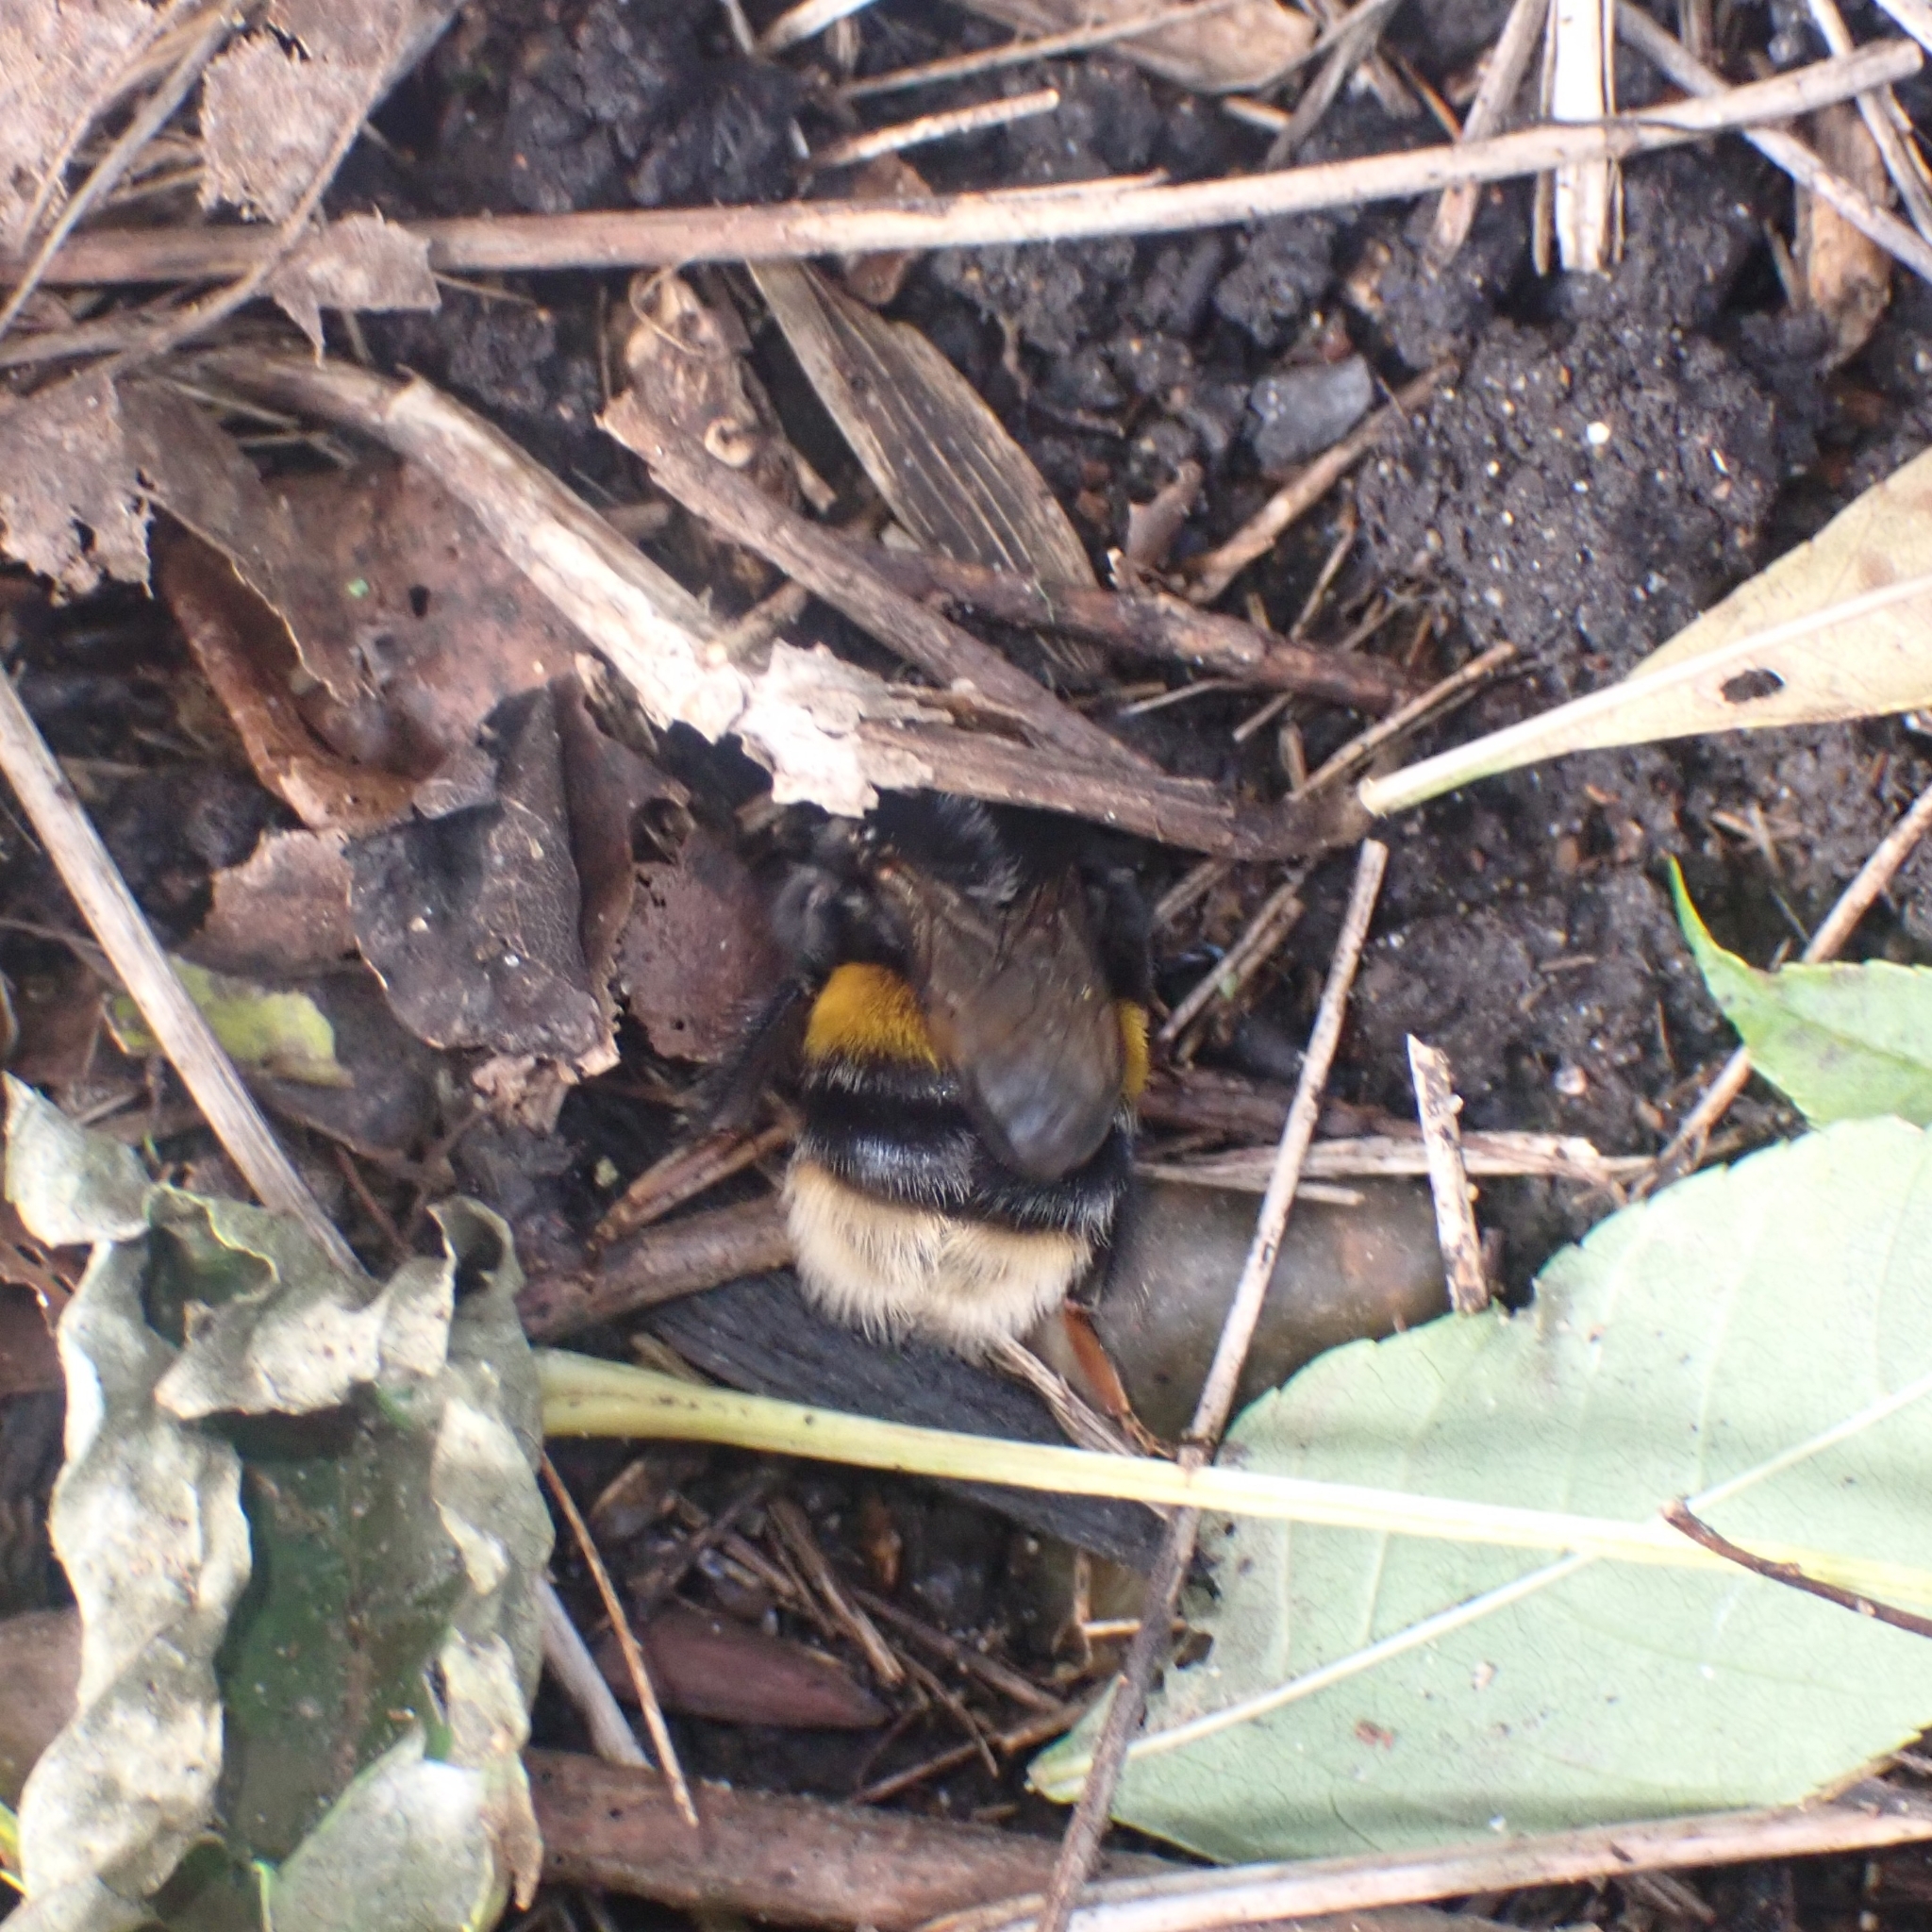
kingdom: Animalia
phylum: Arthropoda
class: Insecta
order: Hymenoptera
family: Apidae
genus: Bombus
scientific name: Bombus terrestris
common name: Buff-tailed bumblebee
